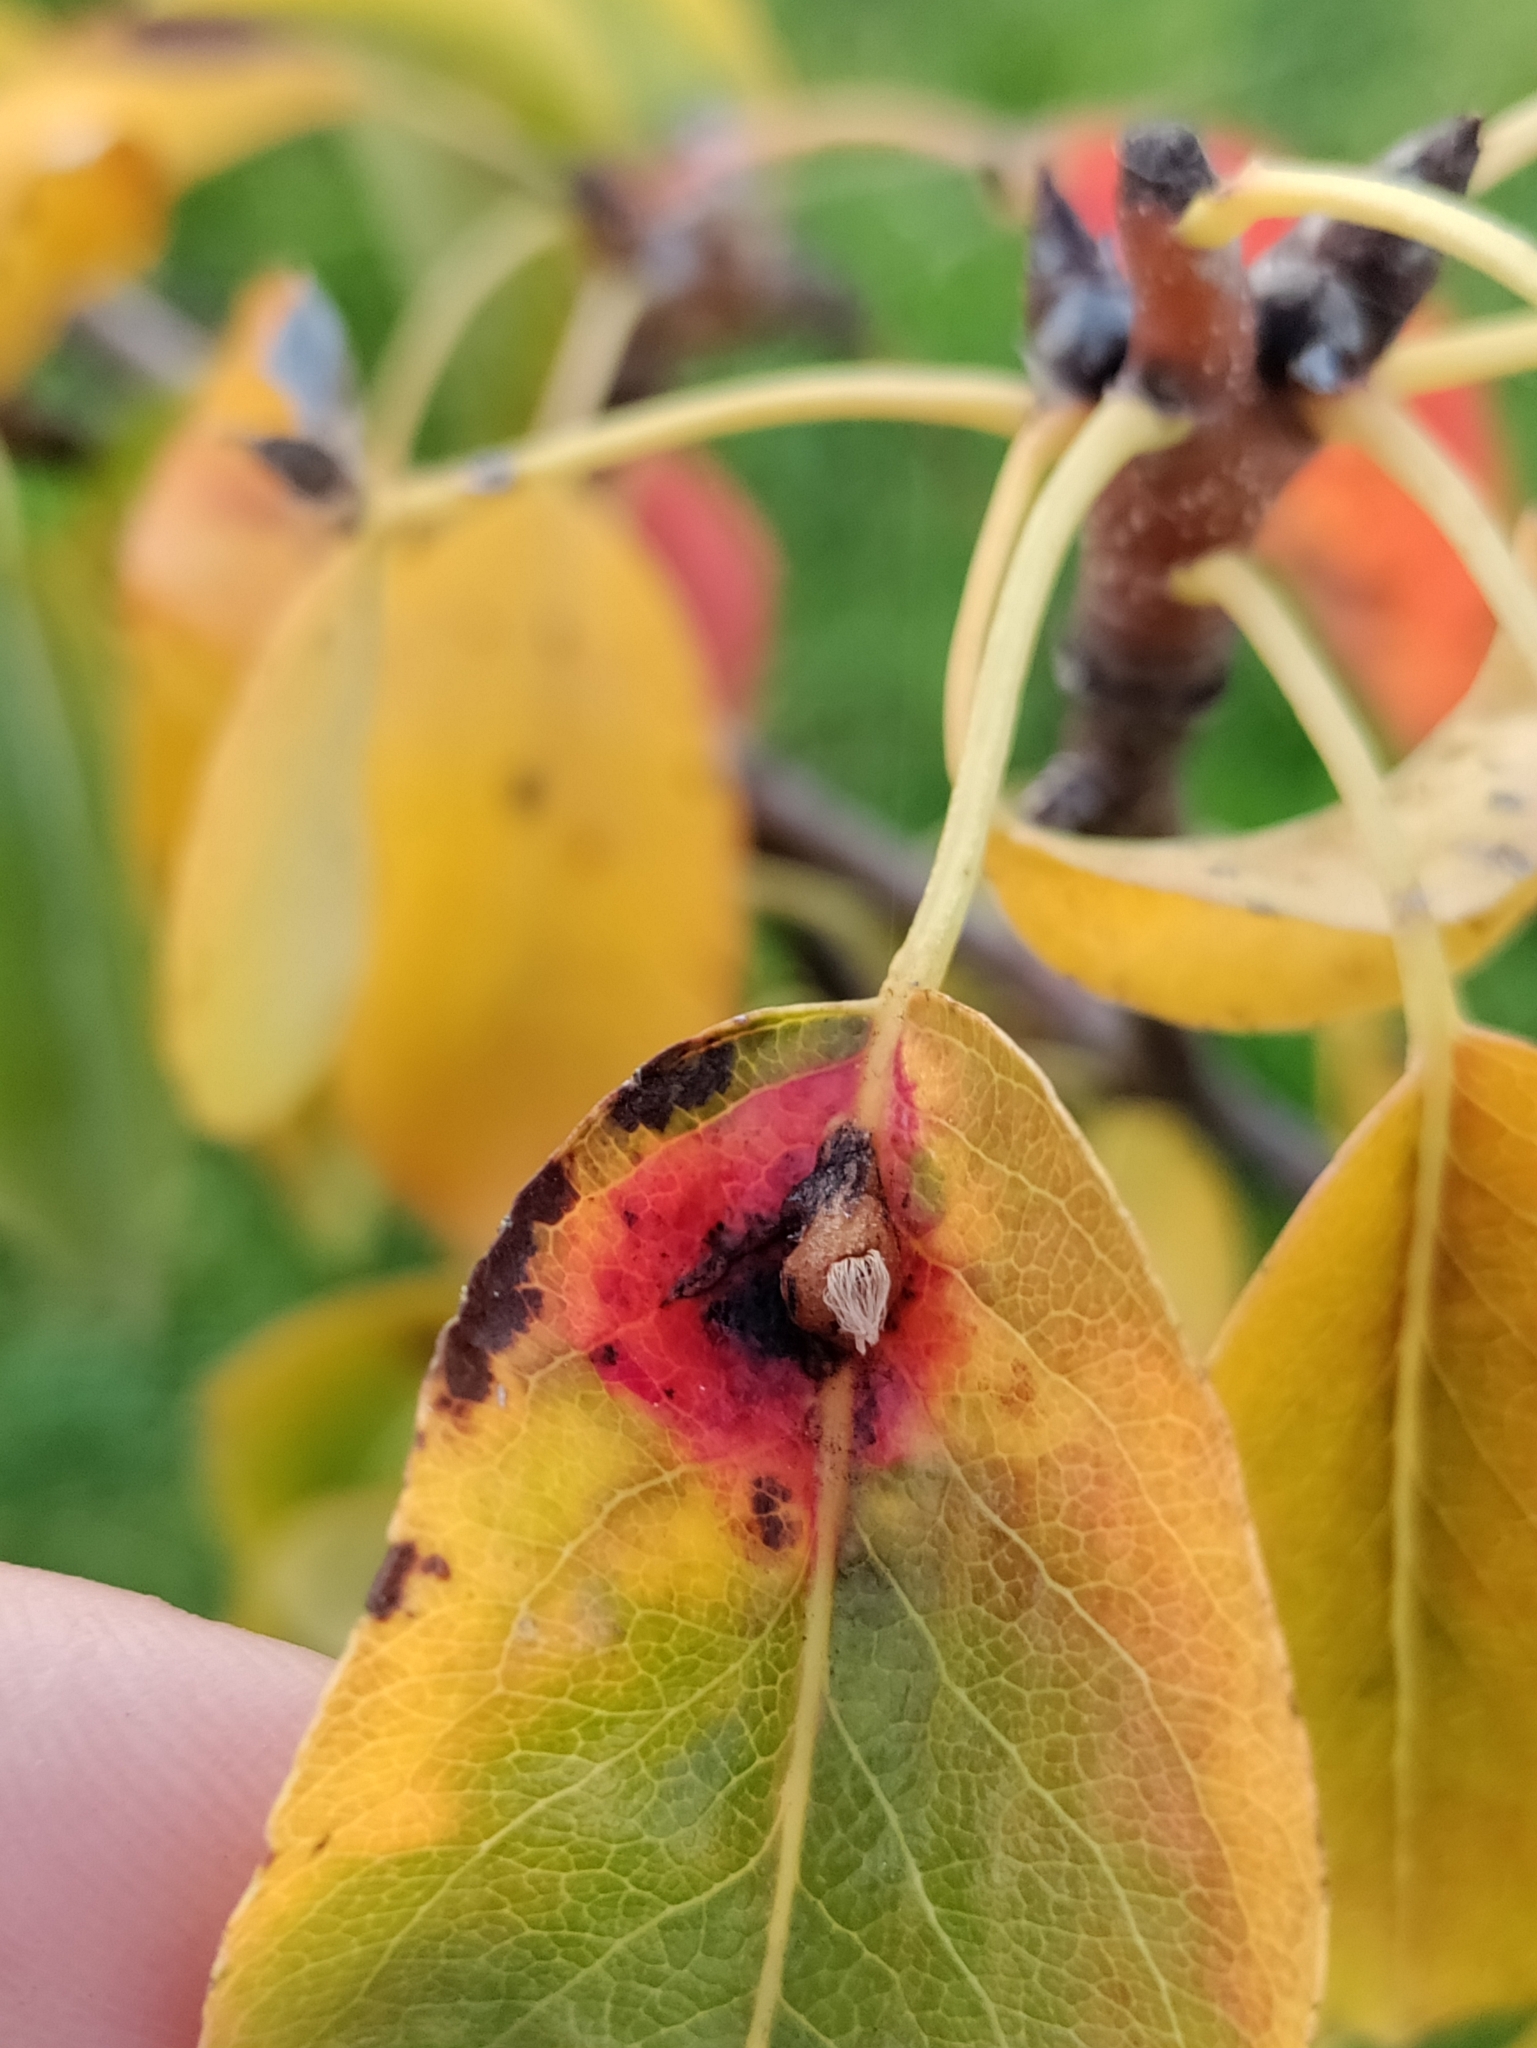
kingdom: Fungi
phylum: Basidiomycota
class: Pucciniomycetes
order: Pucciniales
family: Gymnosporangiaceae
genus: Gymnosporangium
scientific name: Gymnosporangium sabinae
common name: Pear trellis rust fungus
